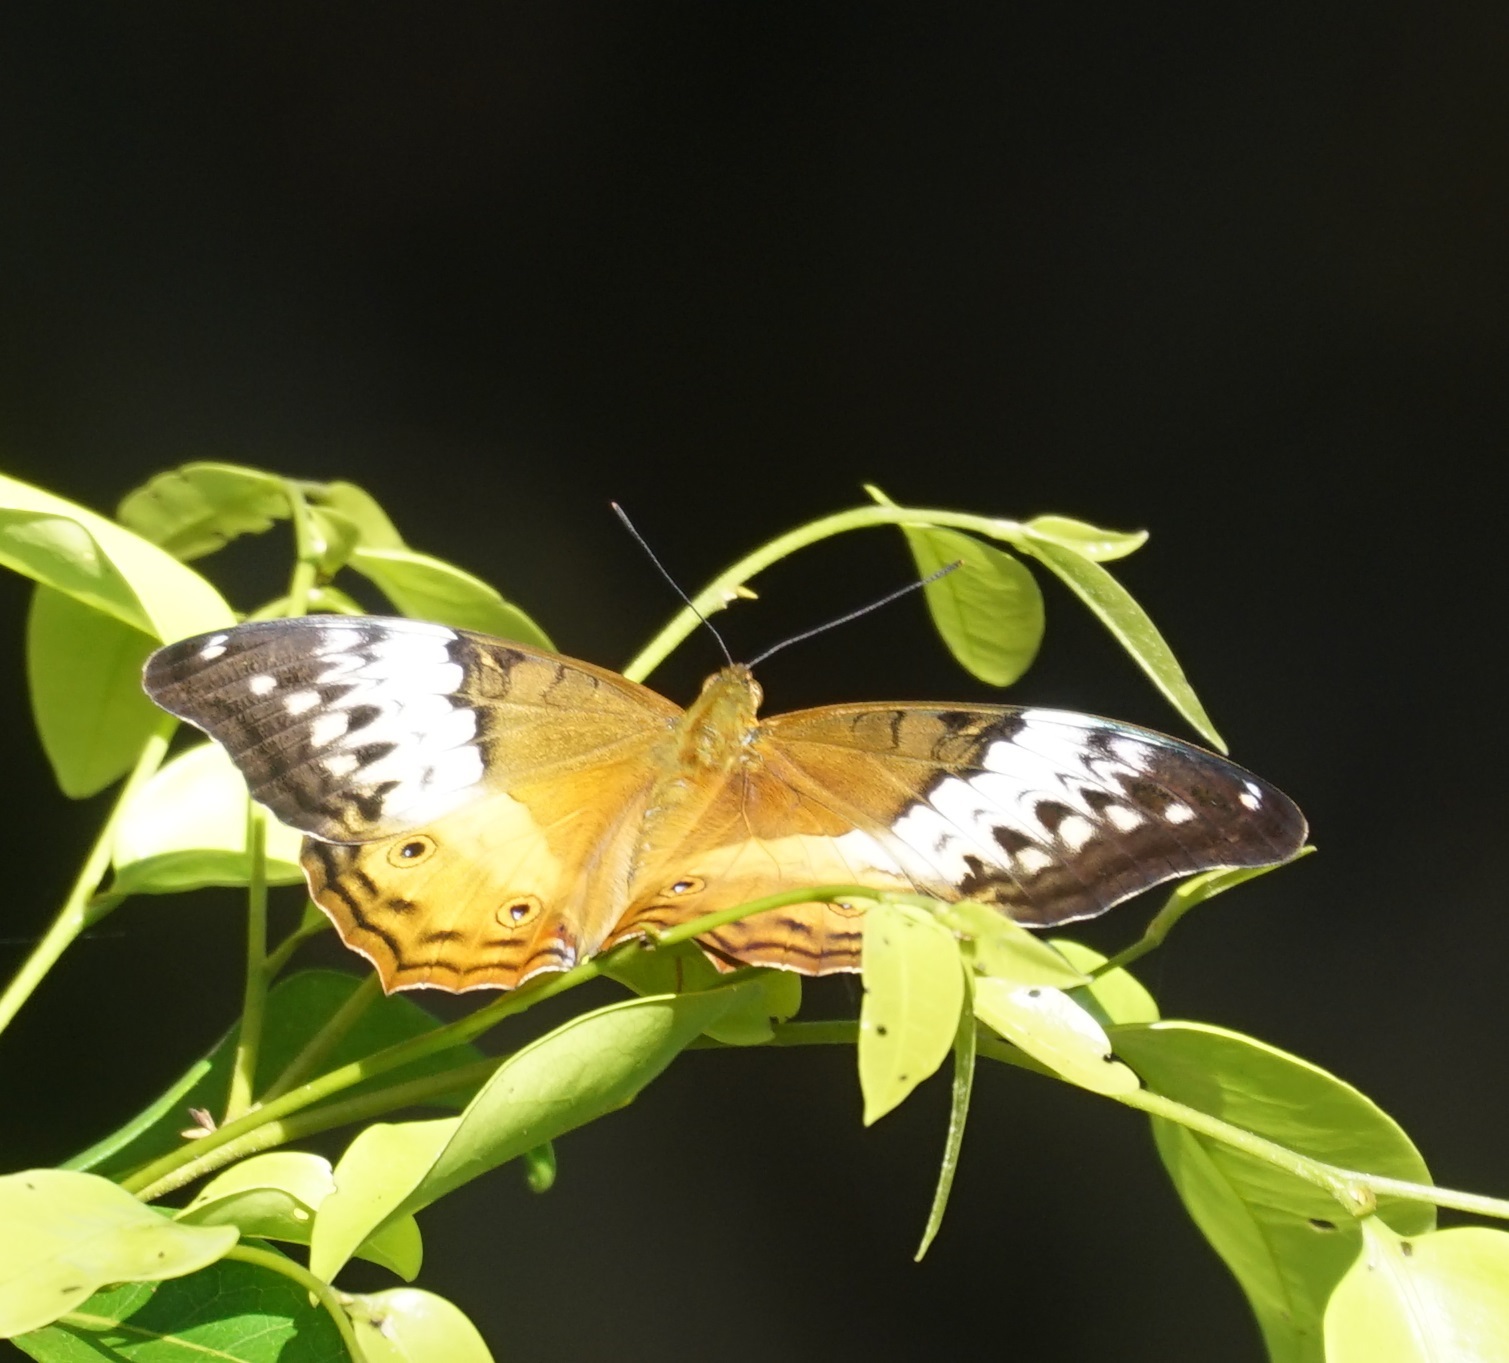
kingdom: Animalia
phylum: Arthropoda
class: Insecta
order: Lepidoptera
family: Nymphalidae
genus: Vindula
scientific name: Vindula arsinoe
